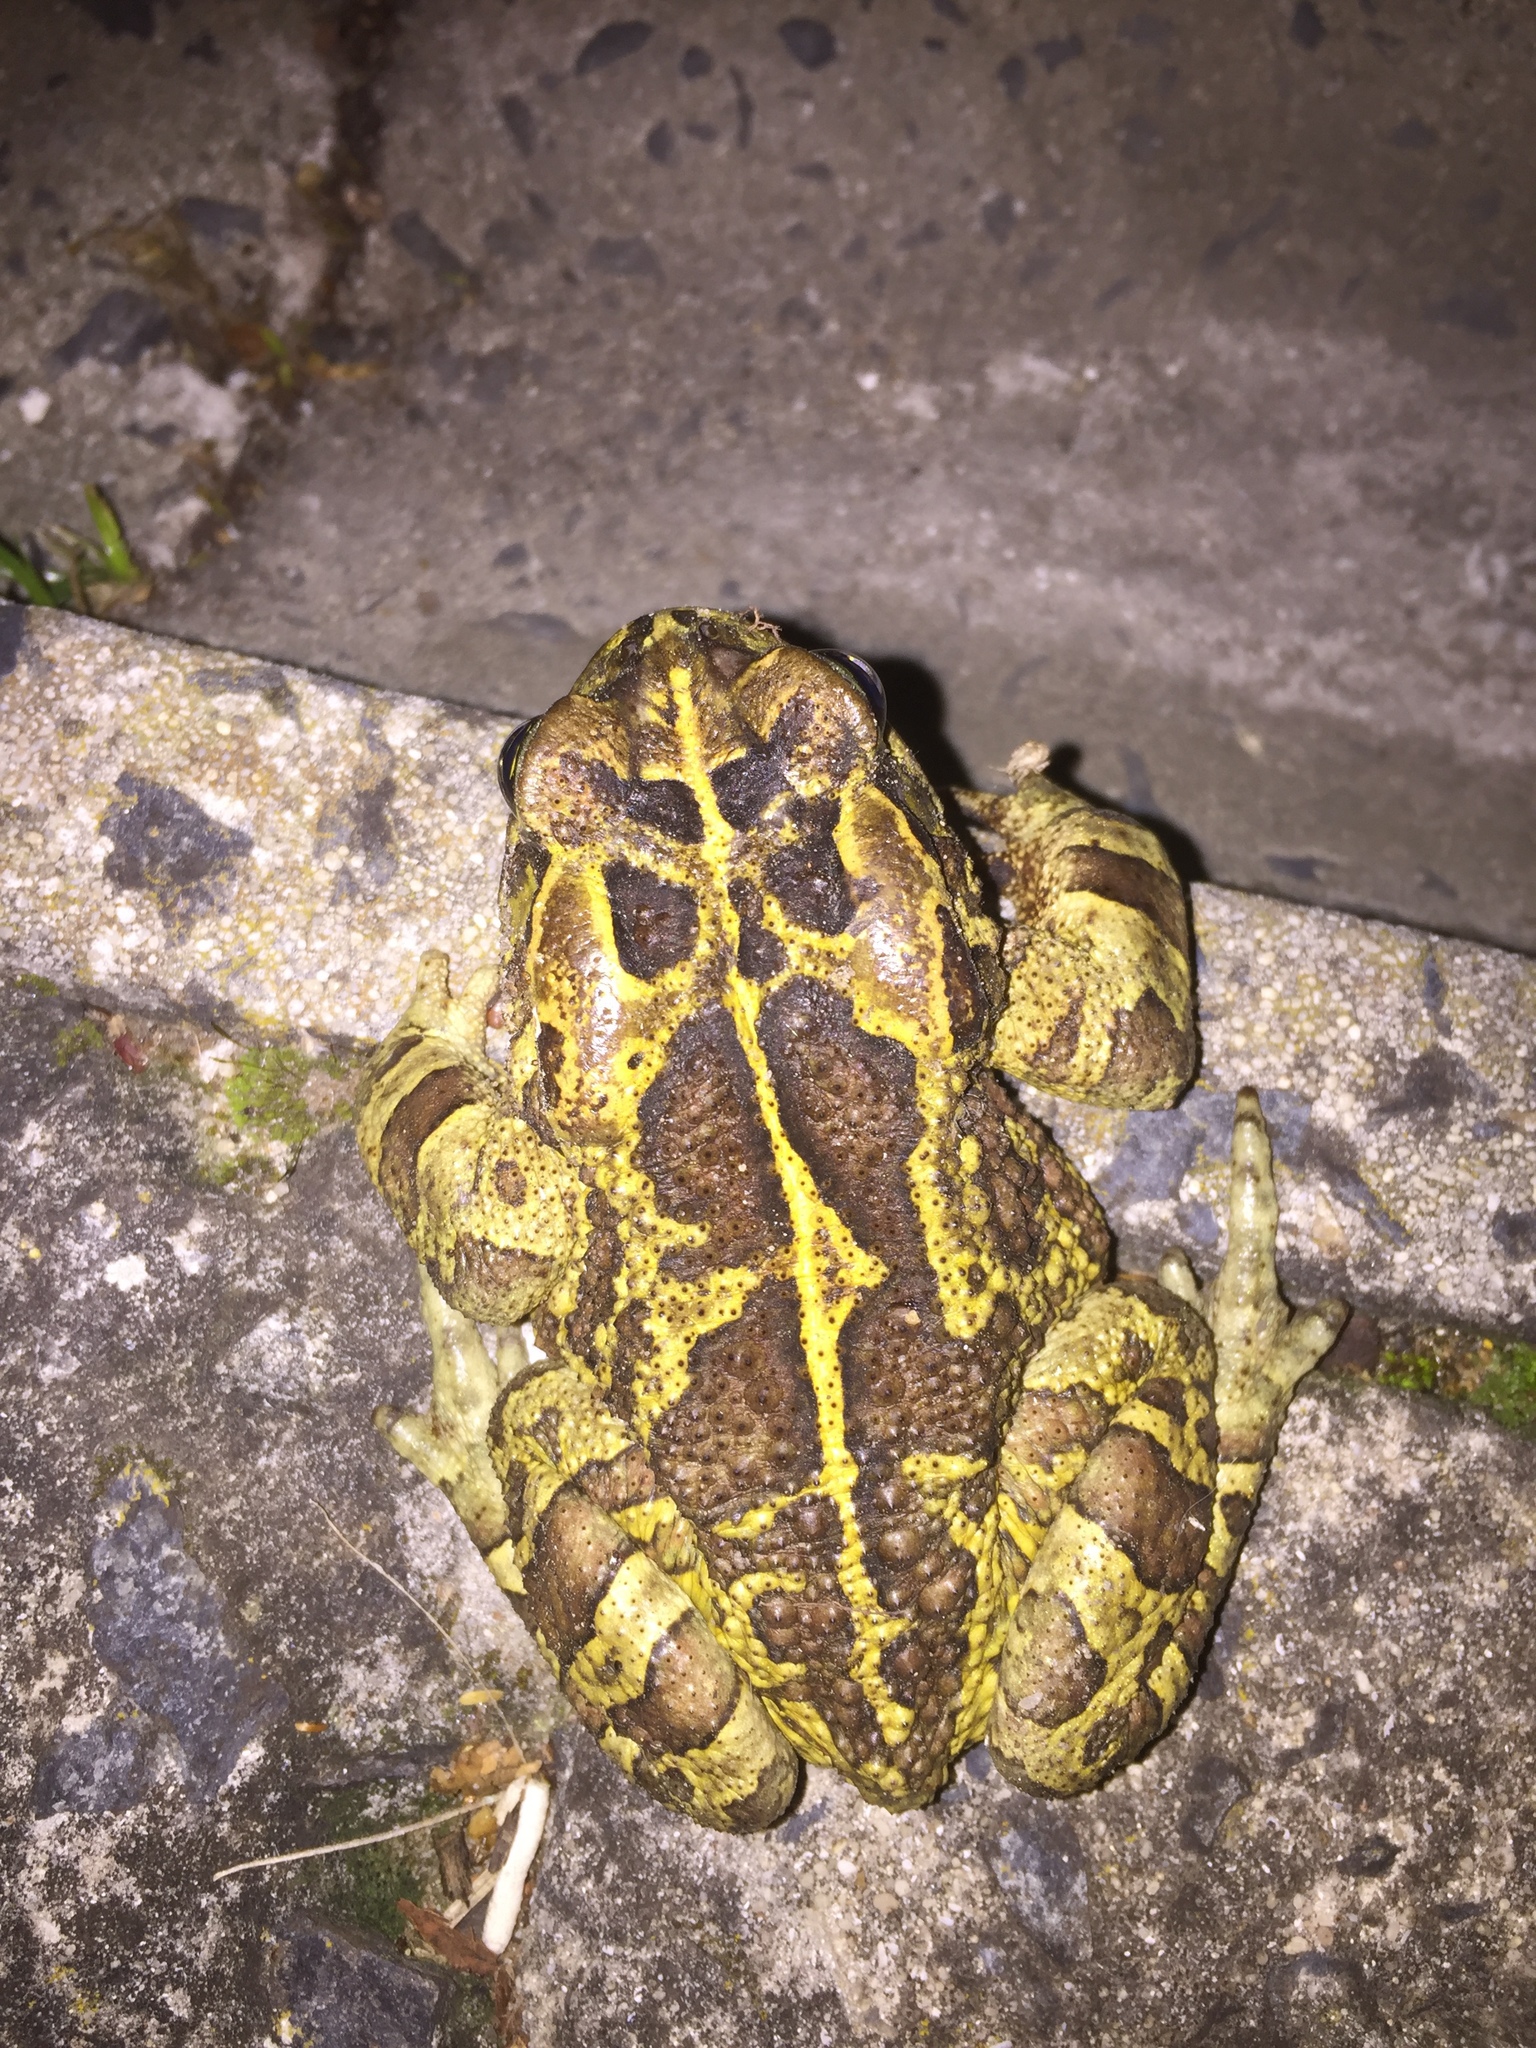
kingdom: Animalia
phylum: Chordata
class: Amphibia
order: Anura
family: Bufonidae
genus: Sclerophrys
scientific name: Sclerophrys pantherina
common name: Panther toad
